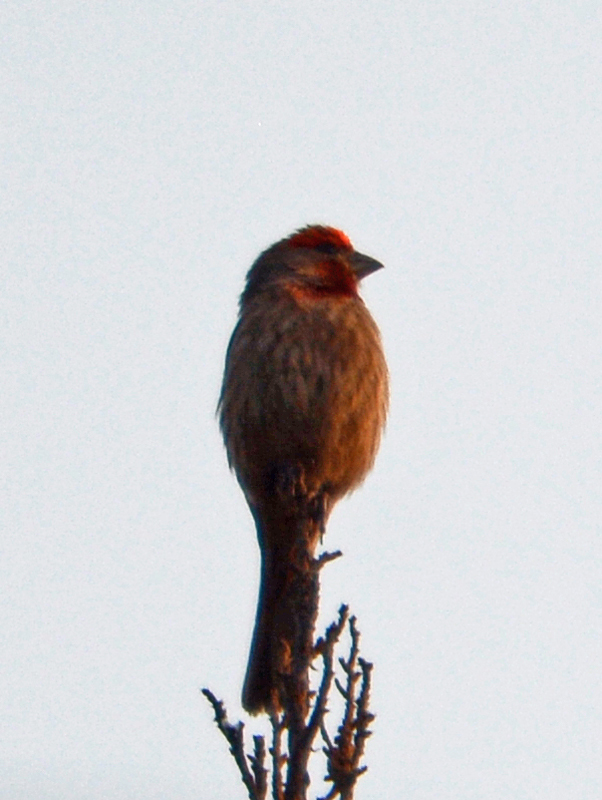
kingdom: Animalia
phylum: Chordata
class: Aves
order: Passeriformes
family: Fringillidae
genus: Haemorhous
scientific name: Haemorhous mexicanus
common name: House finch
